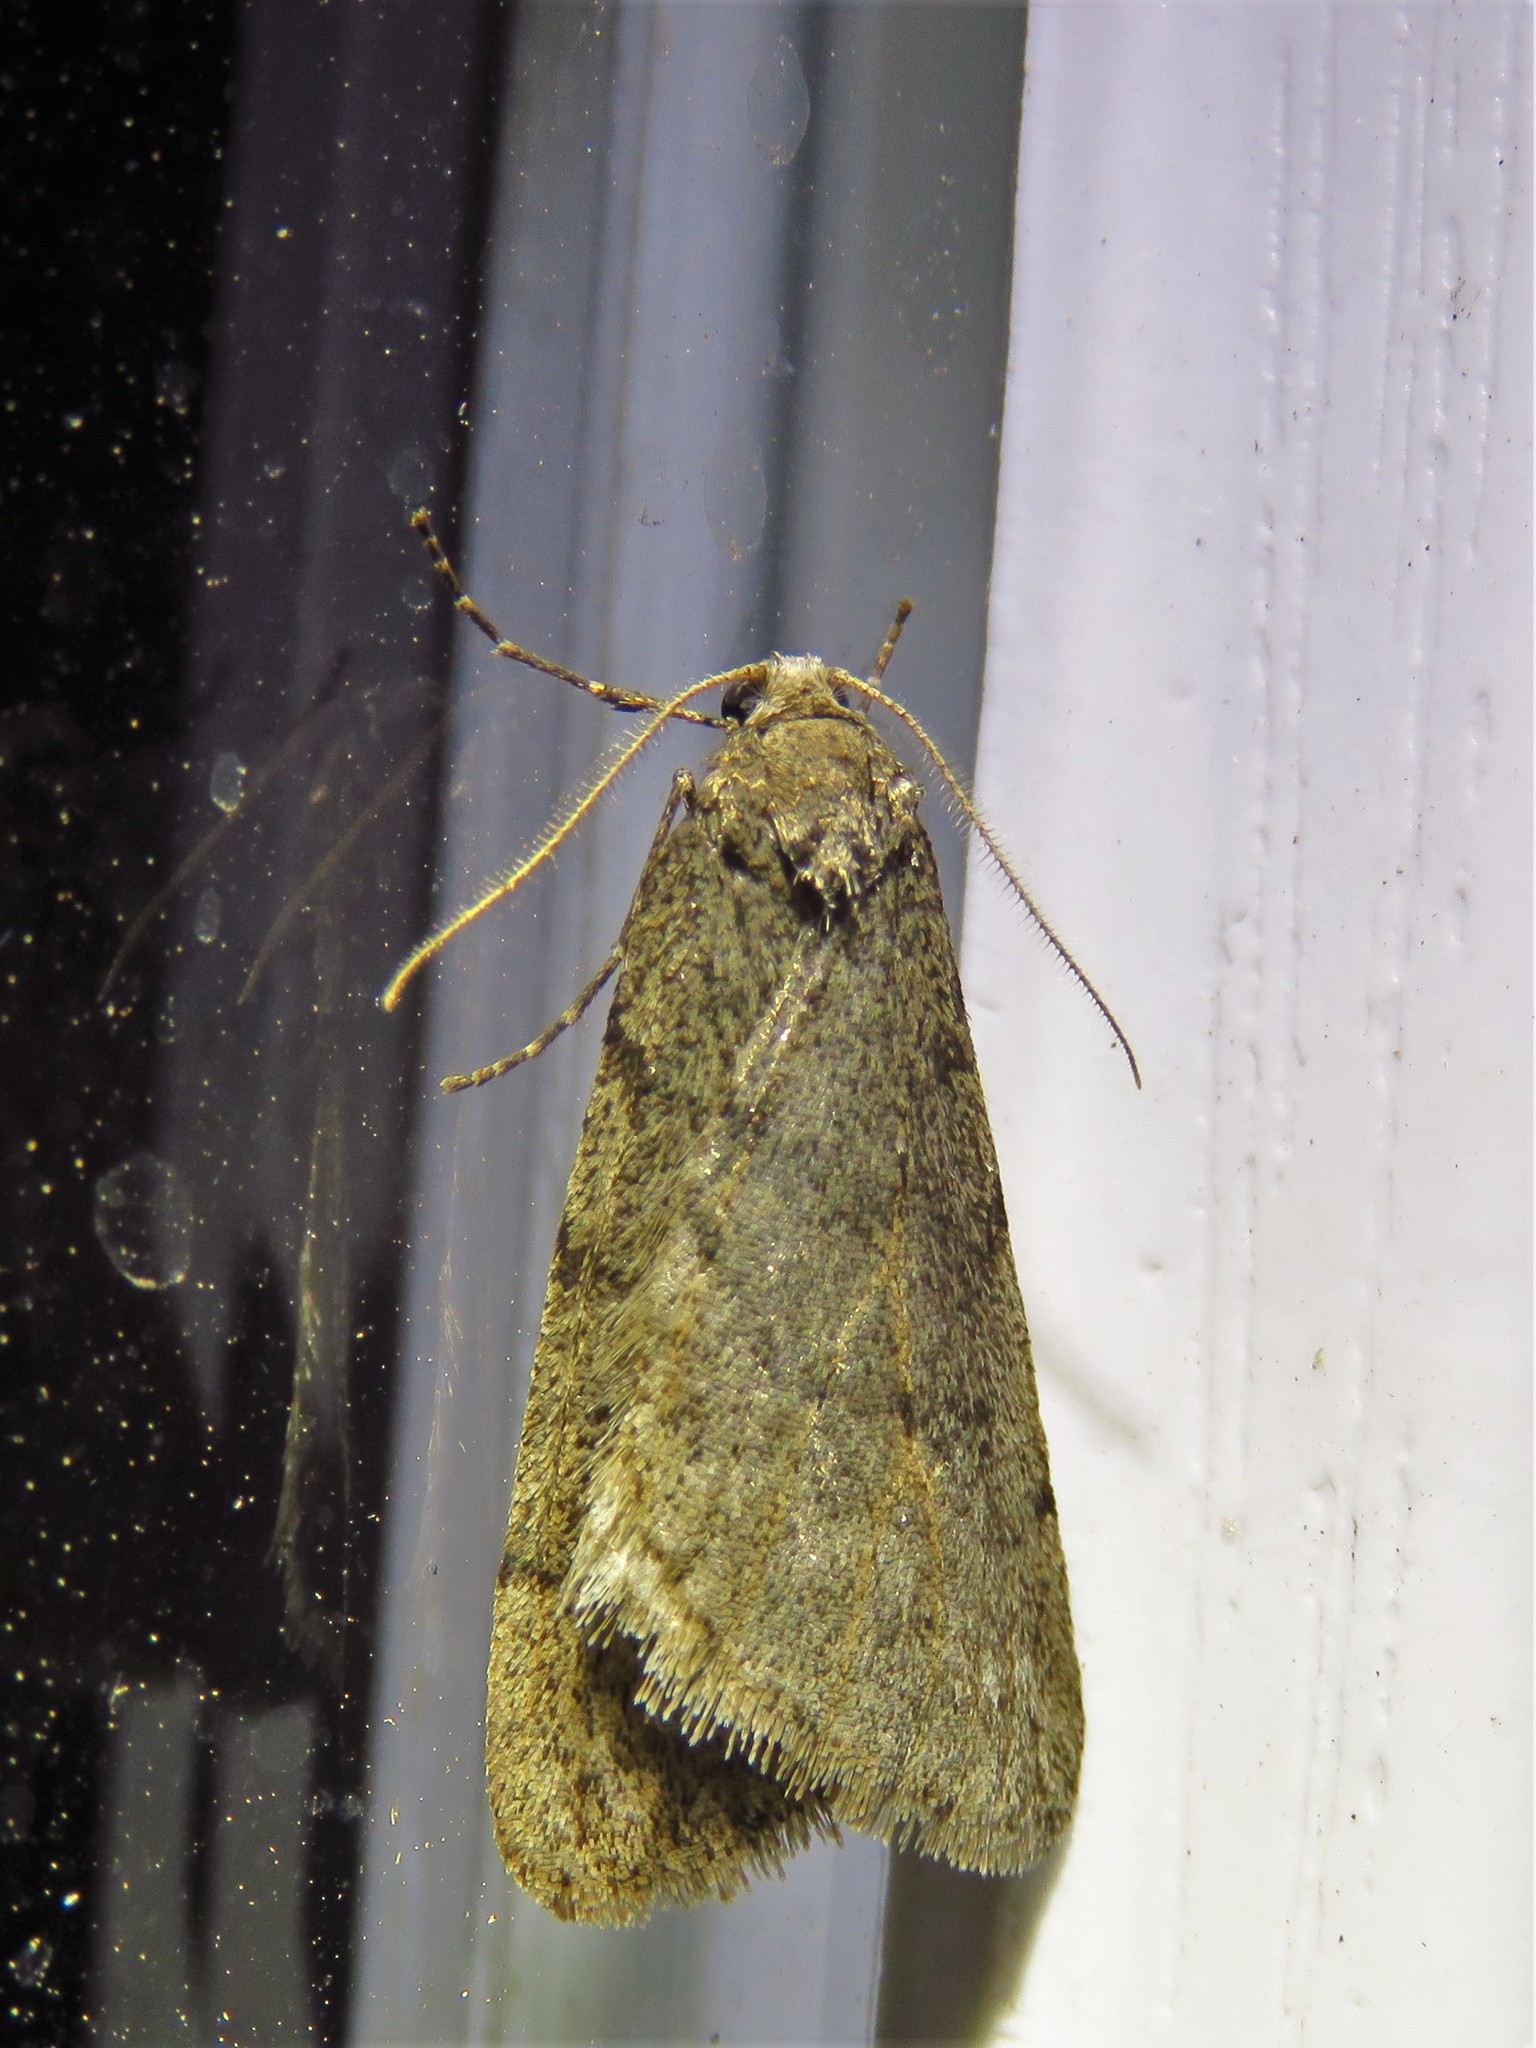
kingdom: Animalia
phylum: Arthropoda
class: Insecta
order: Lepidoptera
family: Geometridae
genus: Paleacrita
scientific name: Paleacrita vernata
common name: Spring cankerworm
